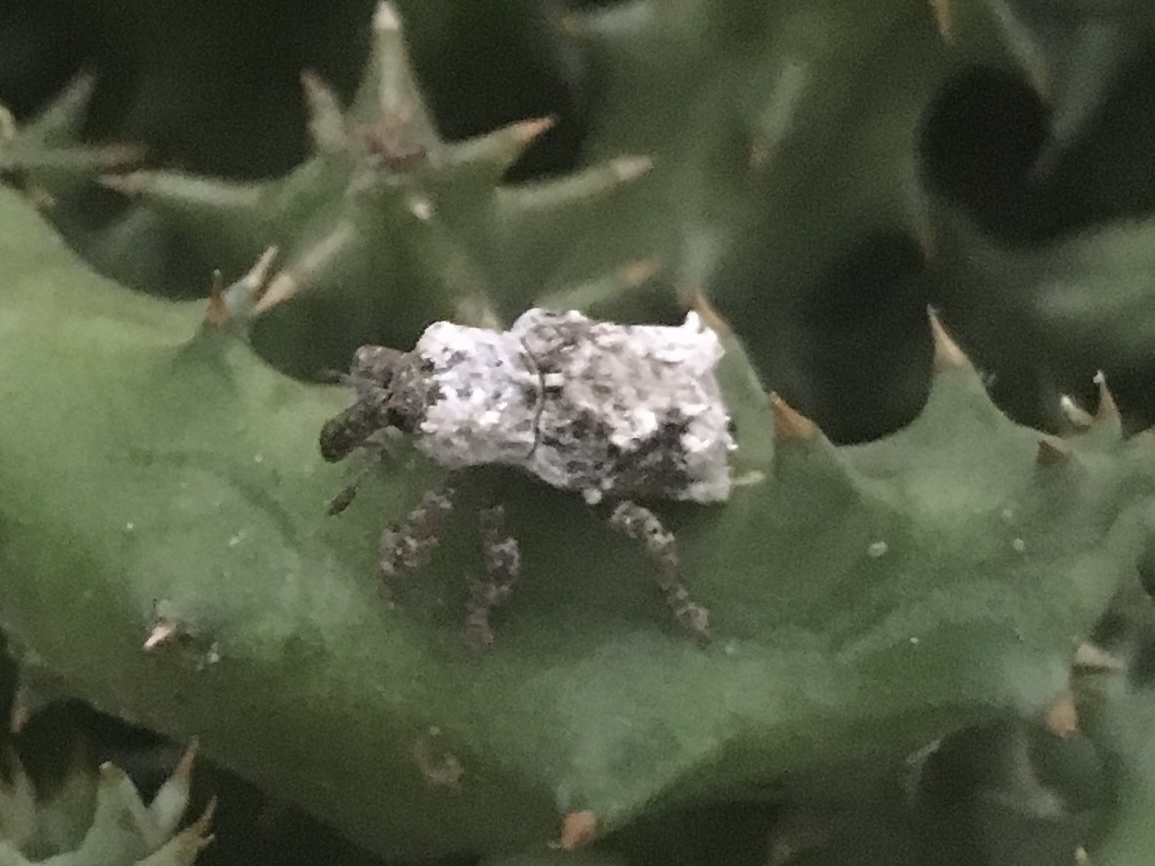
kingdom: Animalia
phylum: Arthropoda
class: Insecta
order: Coleoptera
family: Curculionidae
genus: Paramecops
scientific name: Paramecops
